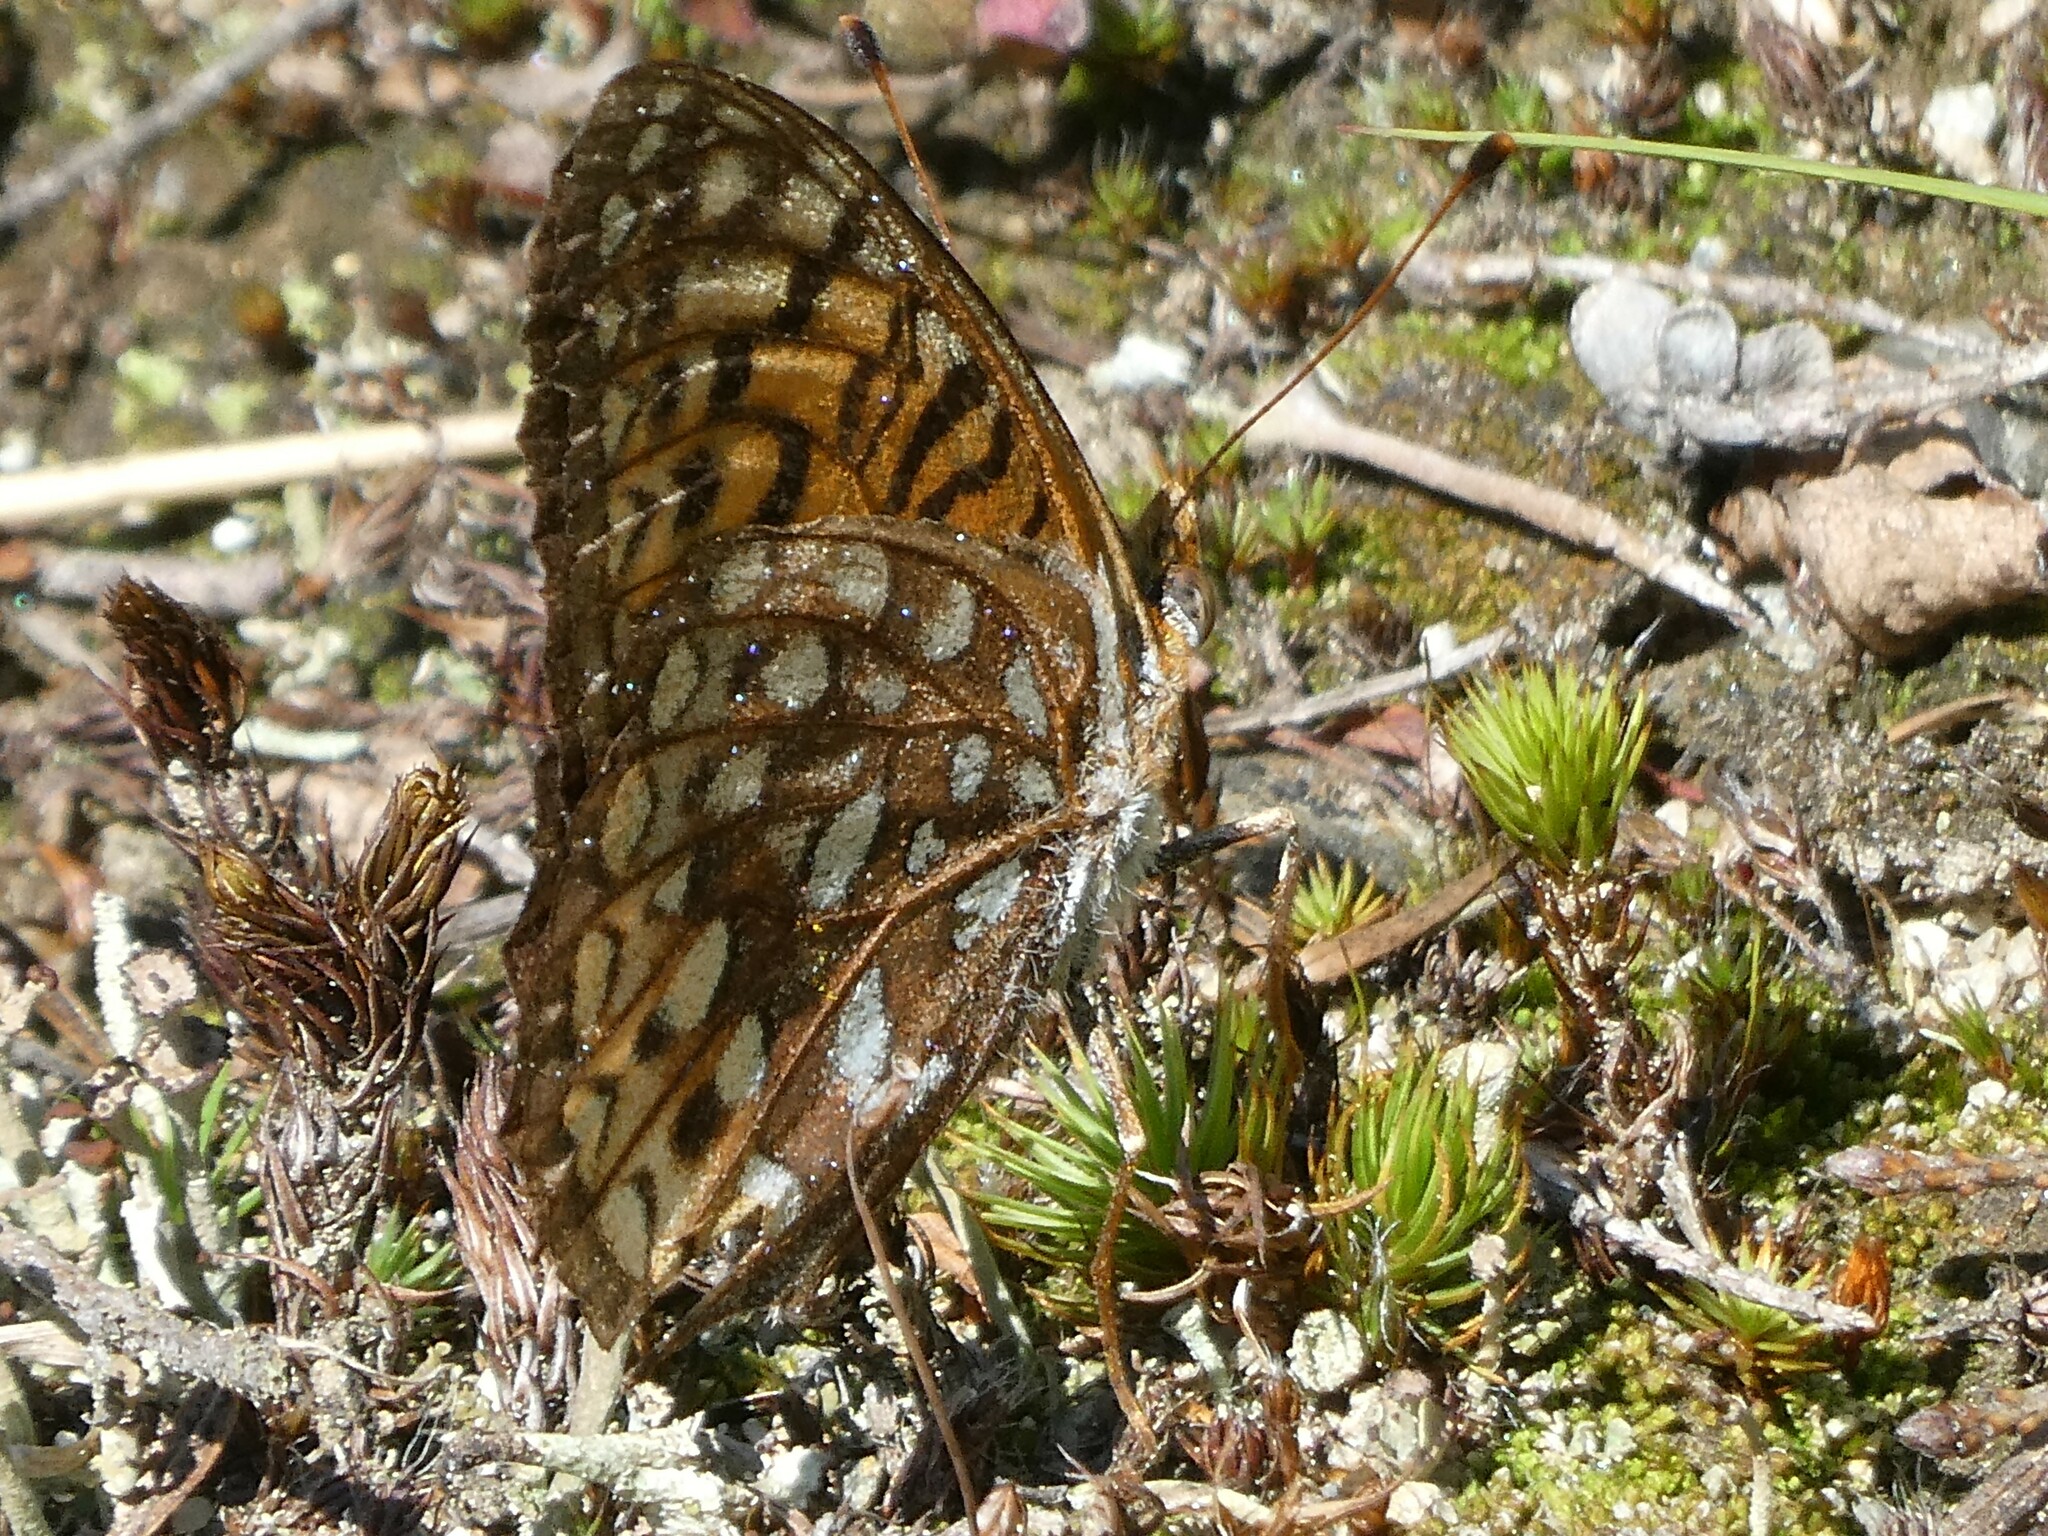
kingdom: Animalia
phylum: Arthropoda
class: Insecta
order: Lepidoptera
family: Nymphalidae
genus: Speyeria
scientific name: Speyeria atlantis
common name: Atlantis fritillary
